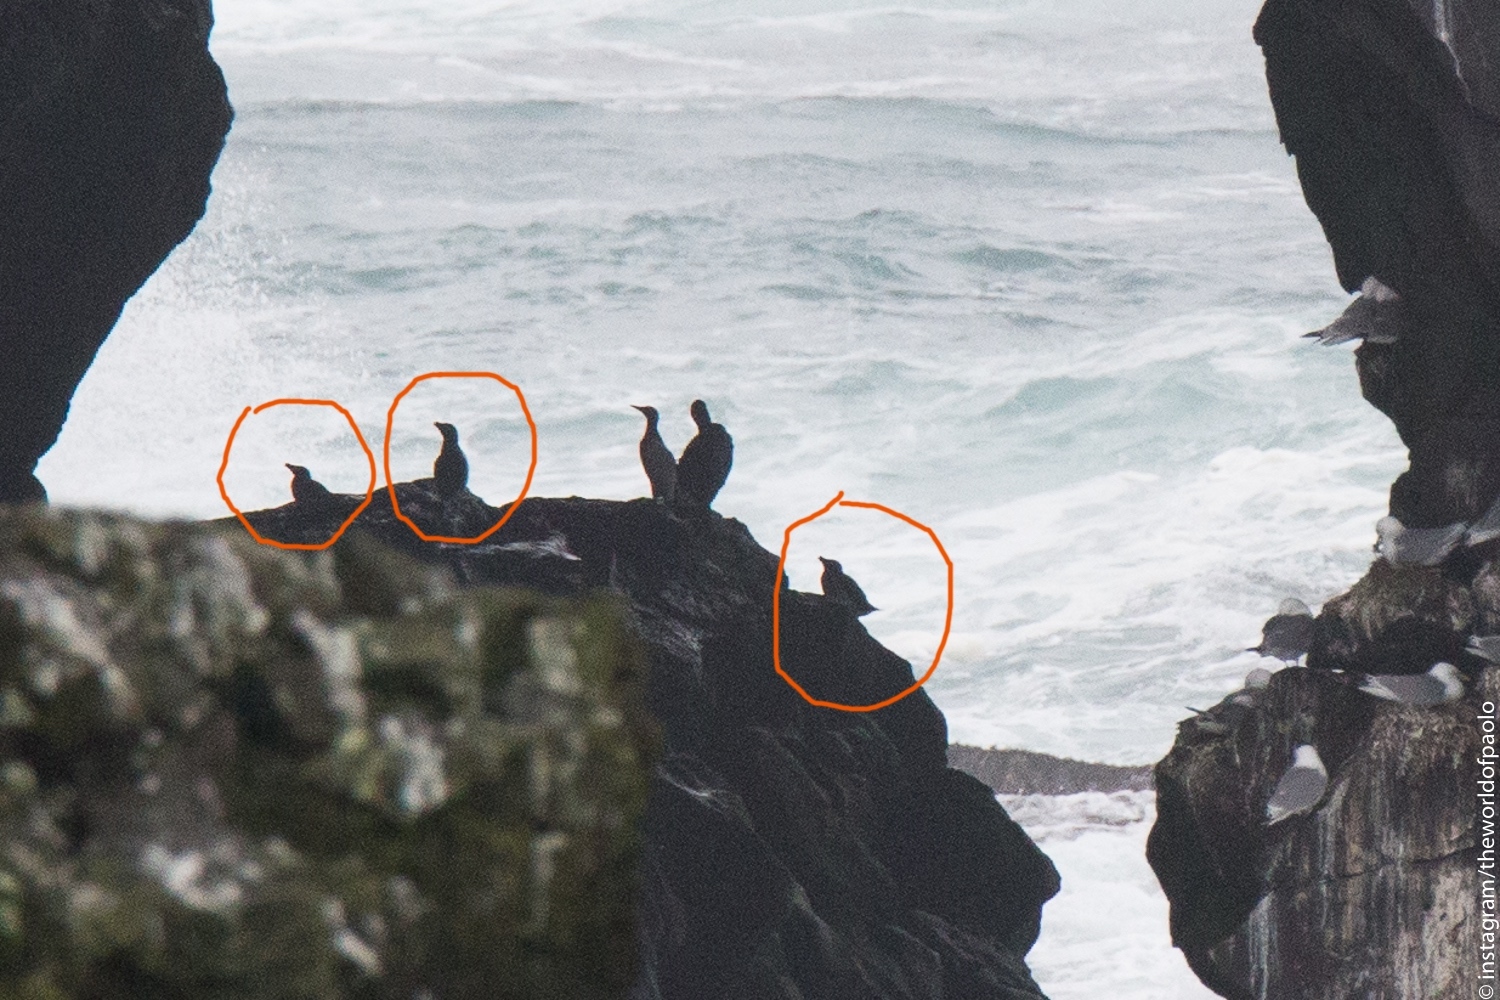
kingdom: Animalia
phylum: Chordata
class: Aves
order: Charadriiformes
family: Alcidae
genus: Alca
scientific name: Alca torda
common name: Razorbill
